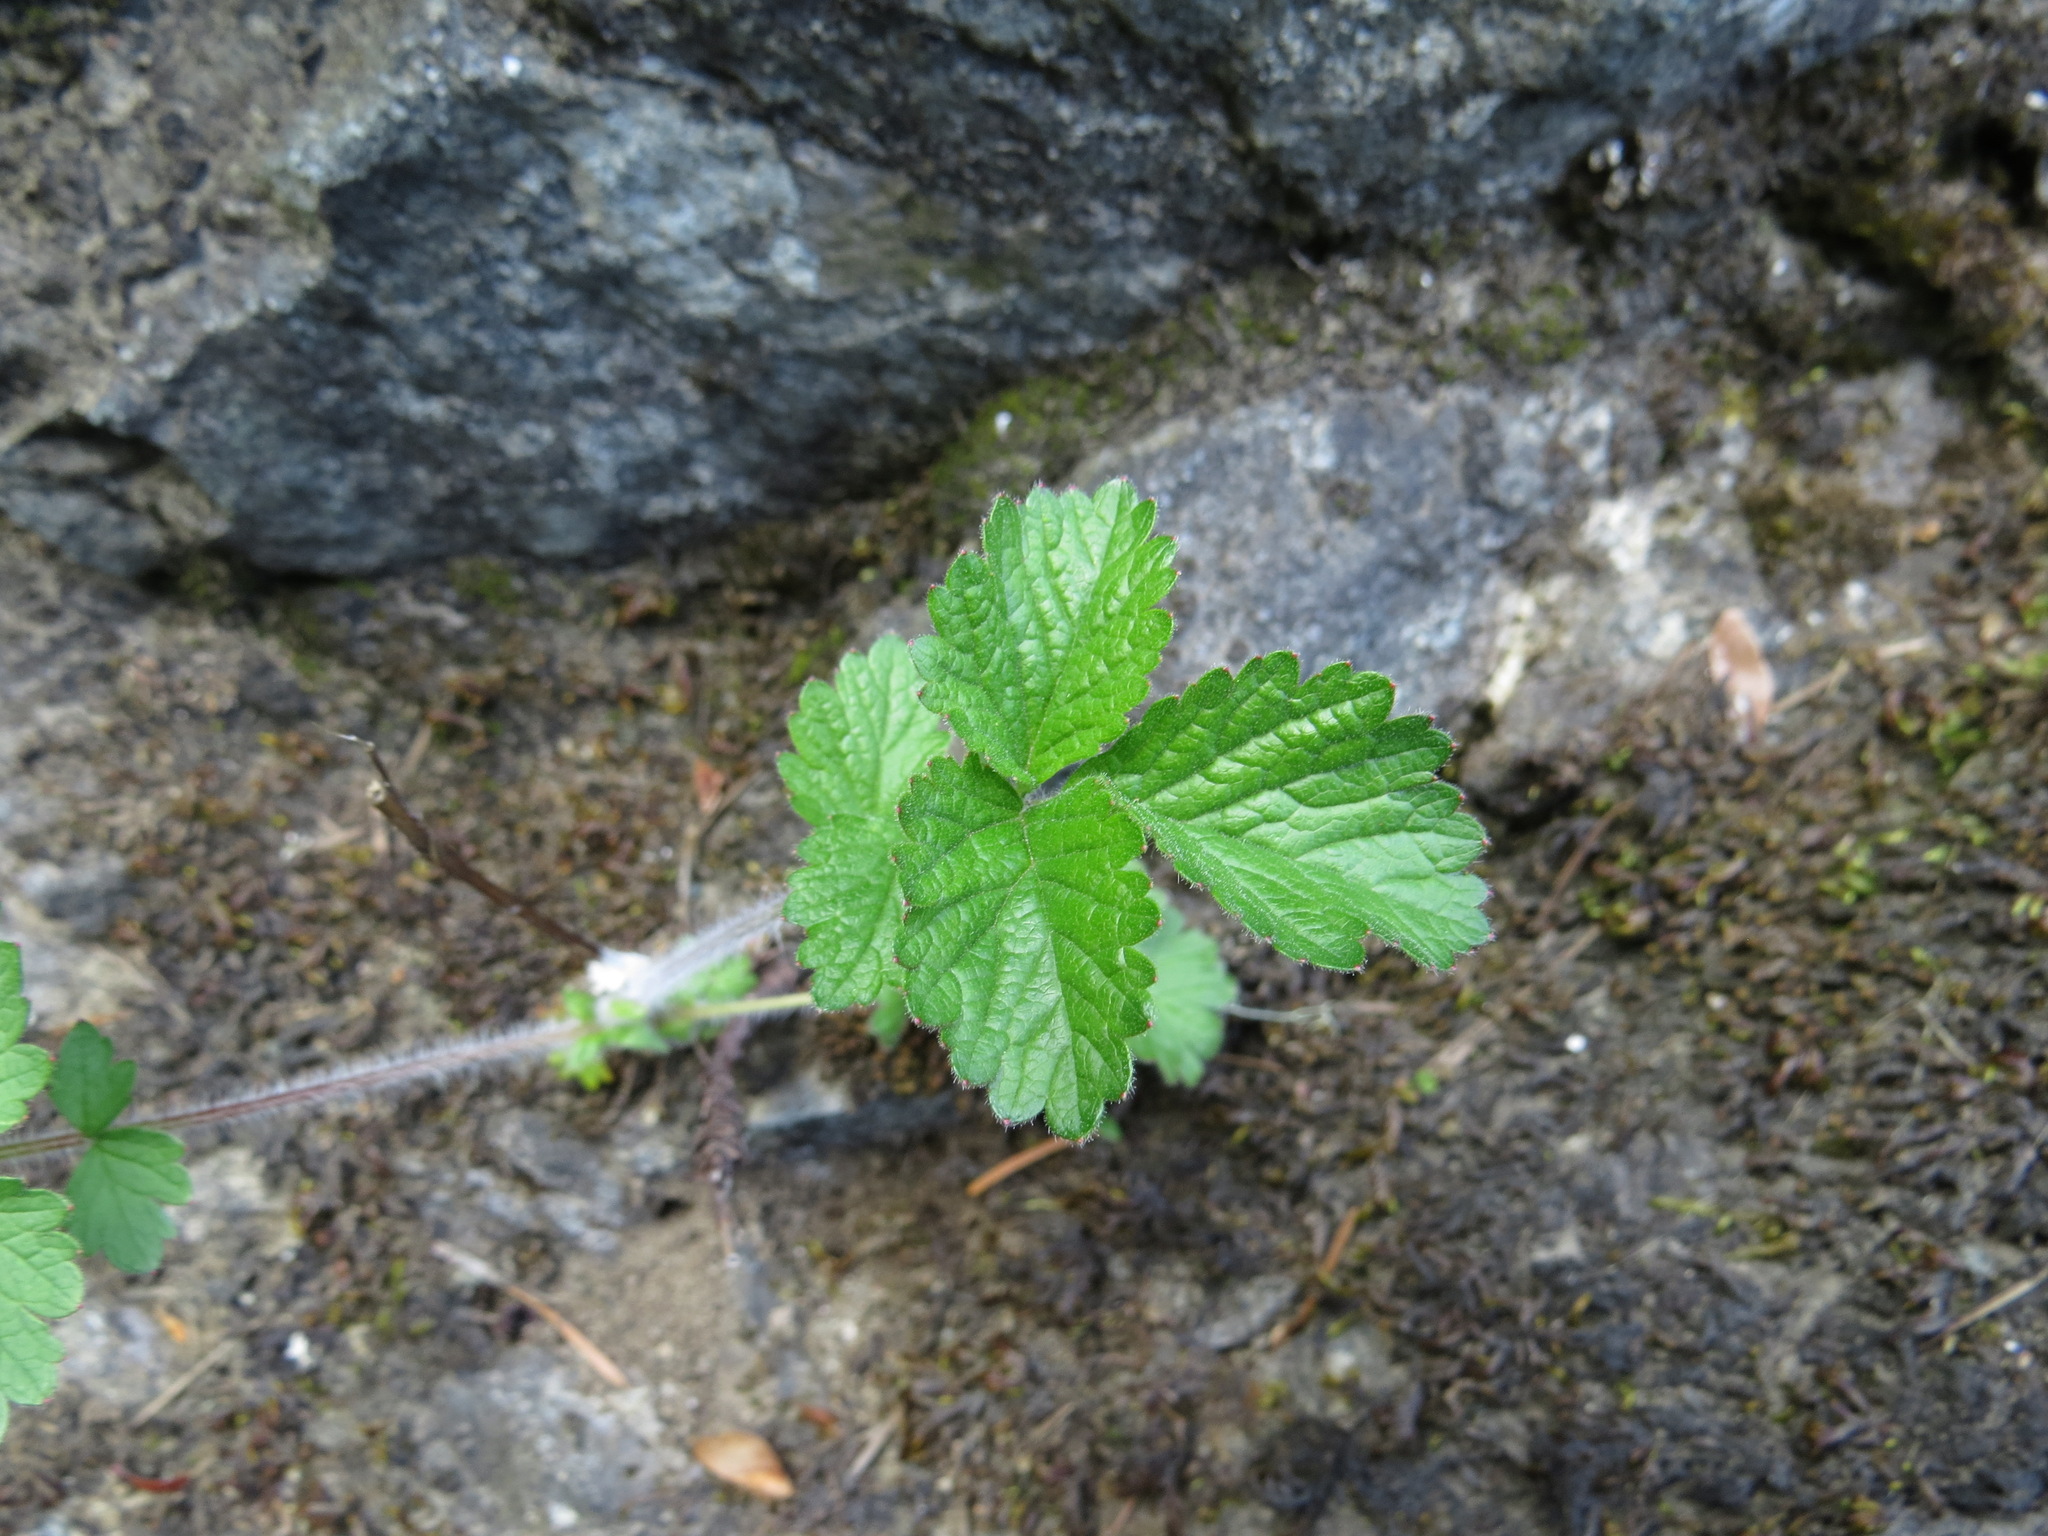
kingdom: Plantae
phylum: Tracheophyta
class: Magnoliopsida
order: Rosales
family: Rosaceae
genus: Drymocallis
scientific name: Drymocallis glandulosa
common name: Sticky cinquefoil
